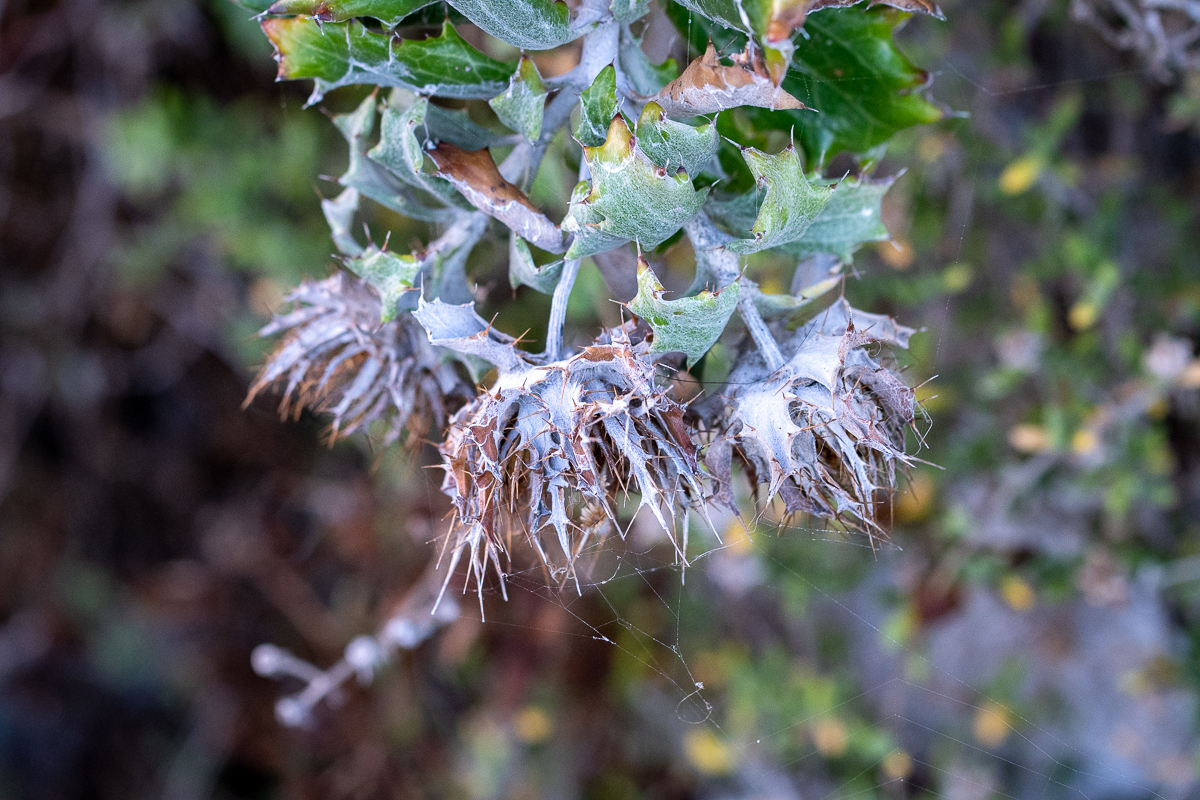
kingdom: Plantae
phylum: Tracheophyta
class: Magnoliopsida
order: Asterales
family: Asteraceae
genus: Berkheya
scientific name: Berkheya barbata
